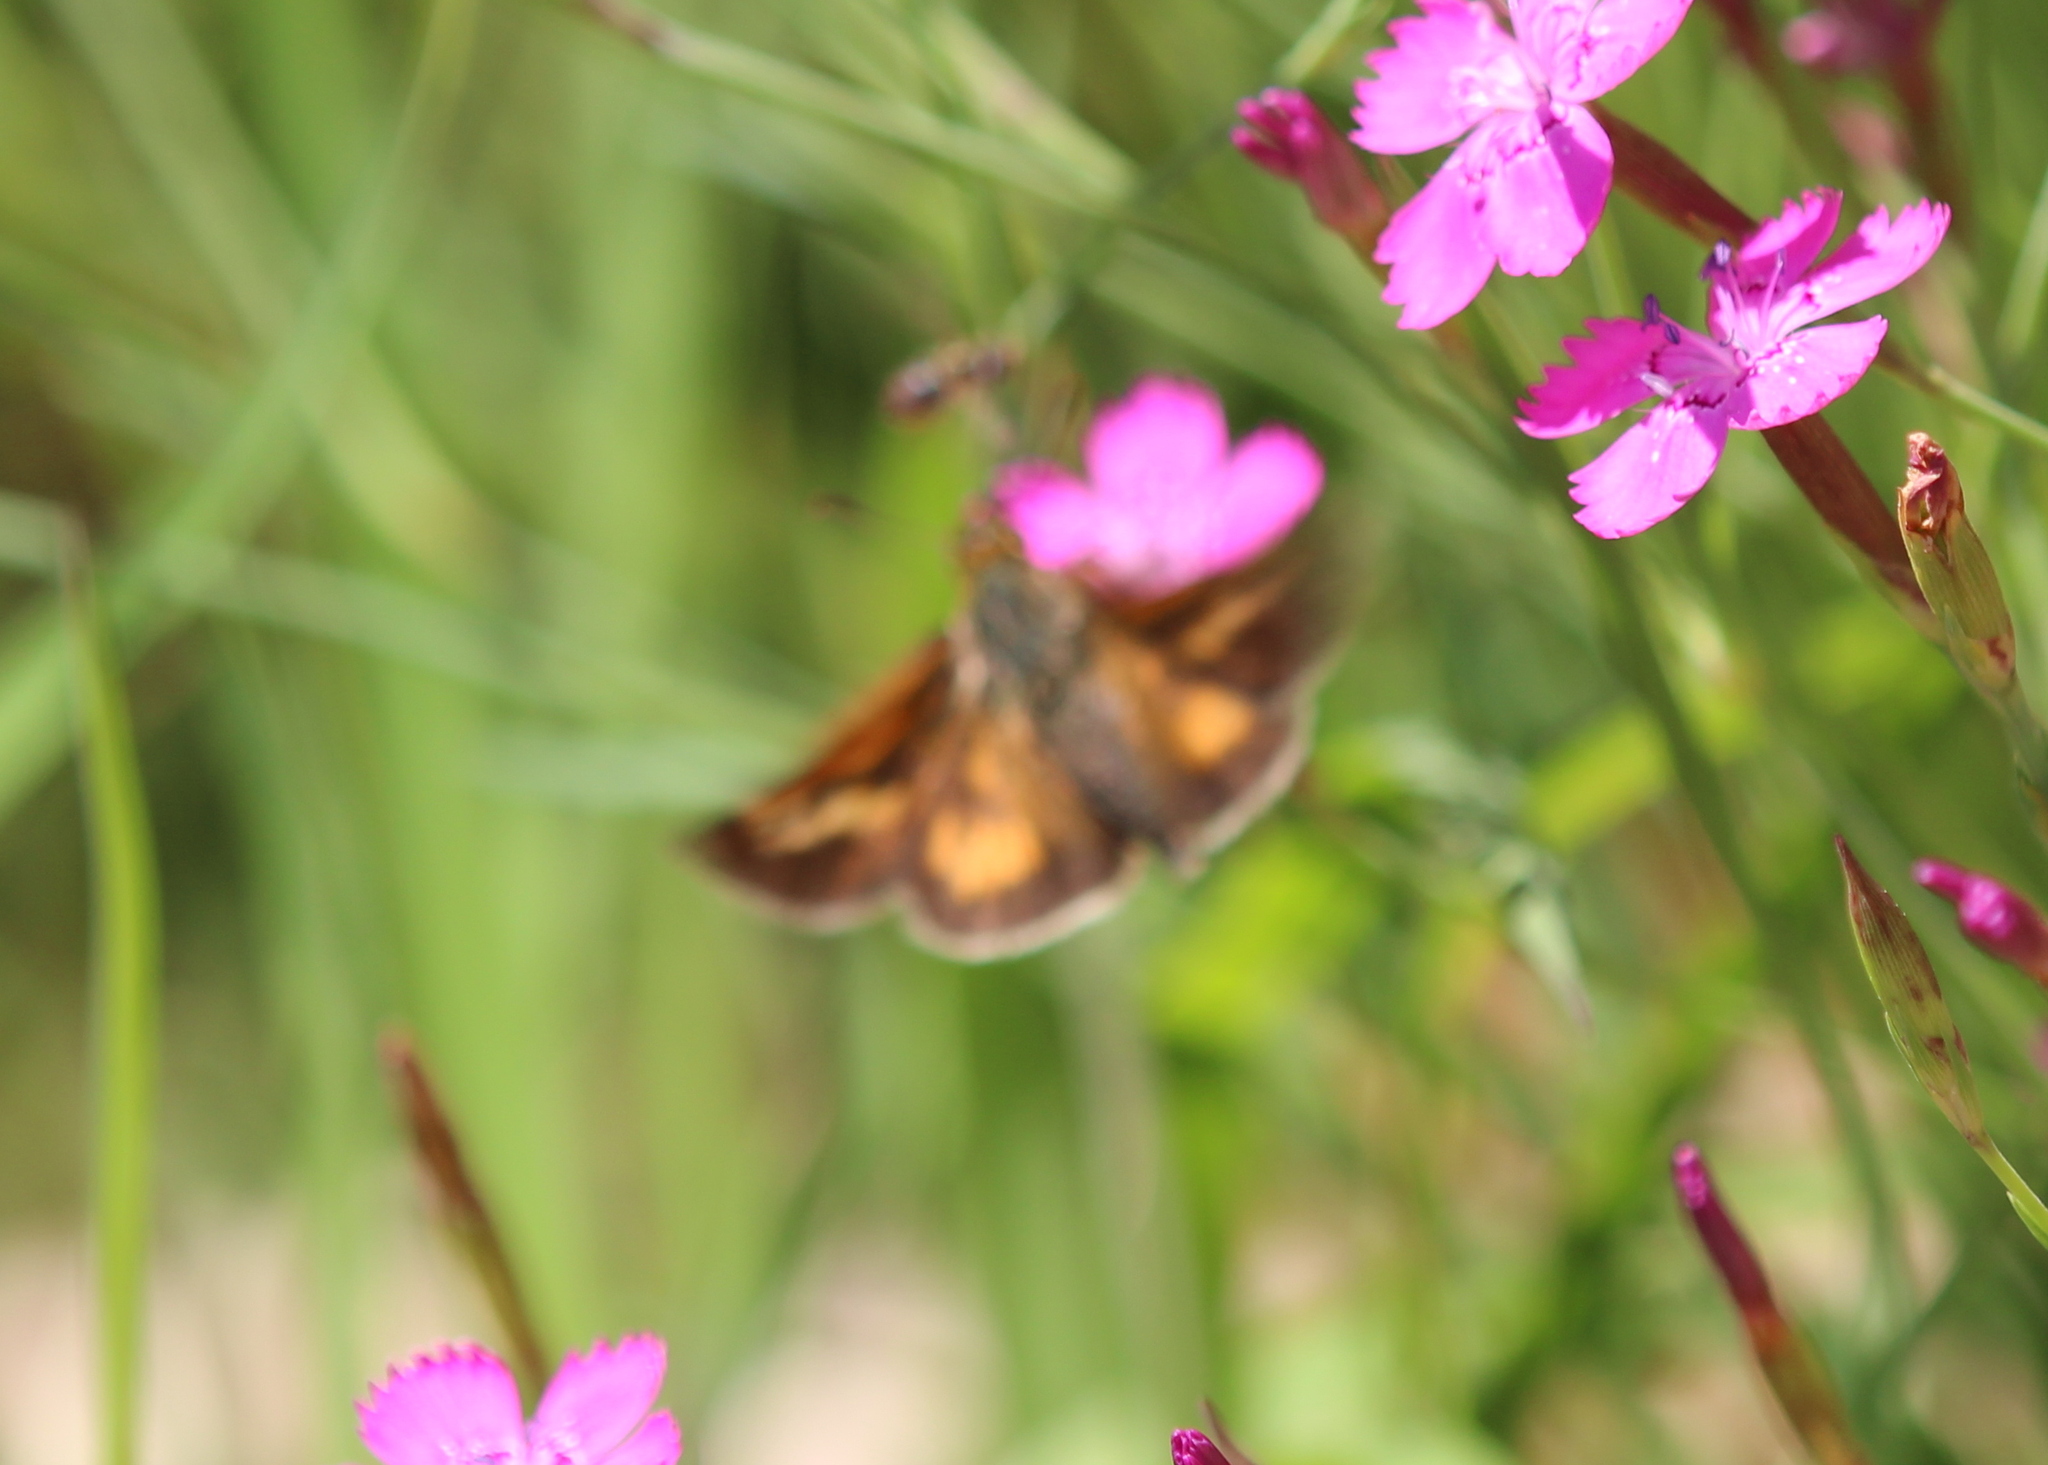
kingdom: Animalia
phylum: Arthropoda
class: Insecta
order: Lepidoptera
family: Hesperiidae
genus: Polites
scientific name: Polites mystic
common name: Long dash
